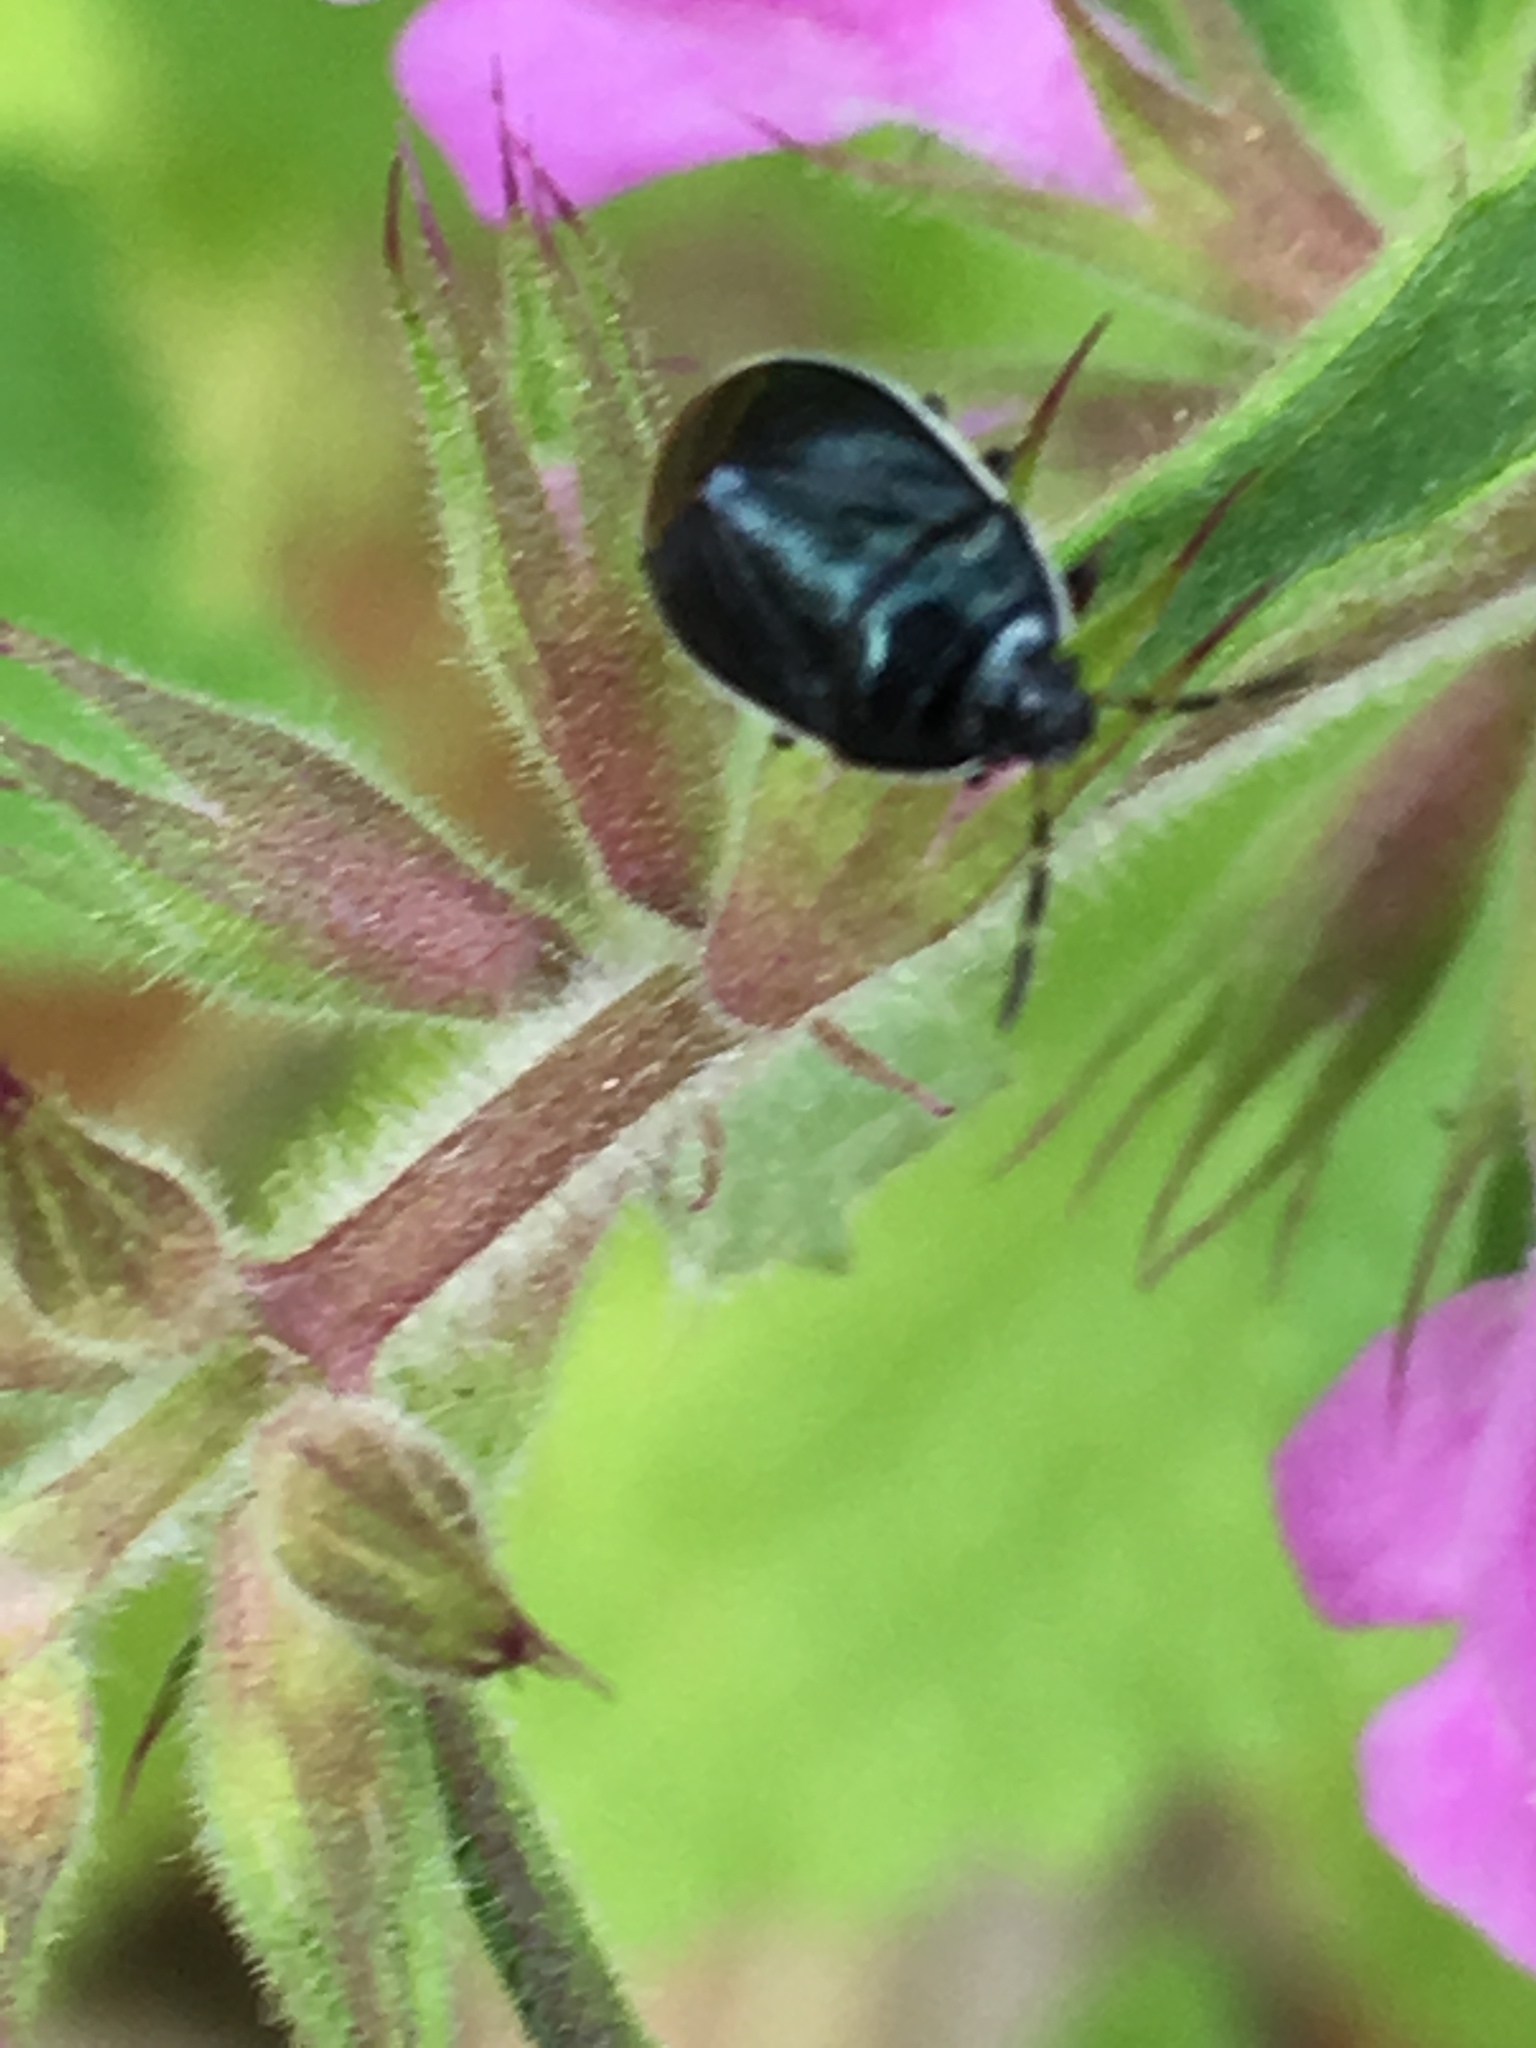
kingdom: Animalia
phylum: Arthropoda
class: Insecta
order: Hemiptera
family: Cydnidae
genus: Sehirus
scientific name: Sehirus cinctus
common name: White-margined burrower bug
